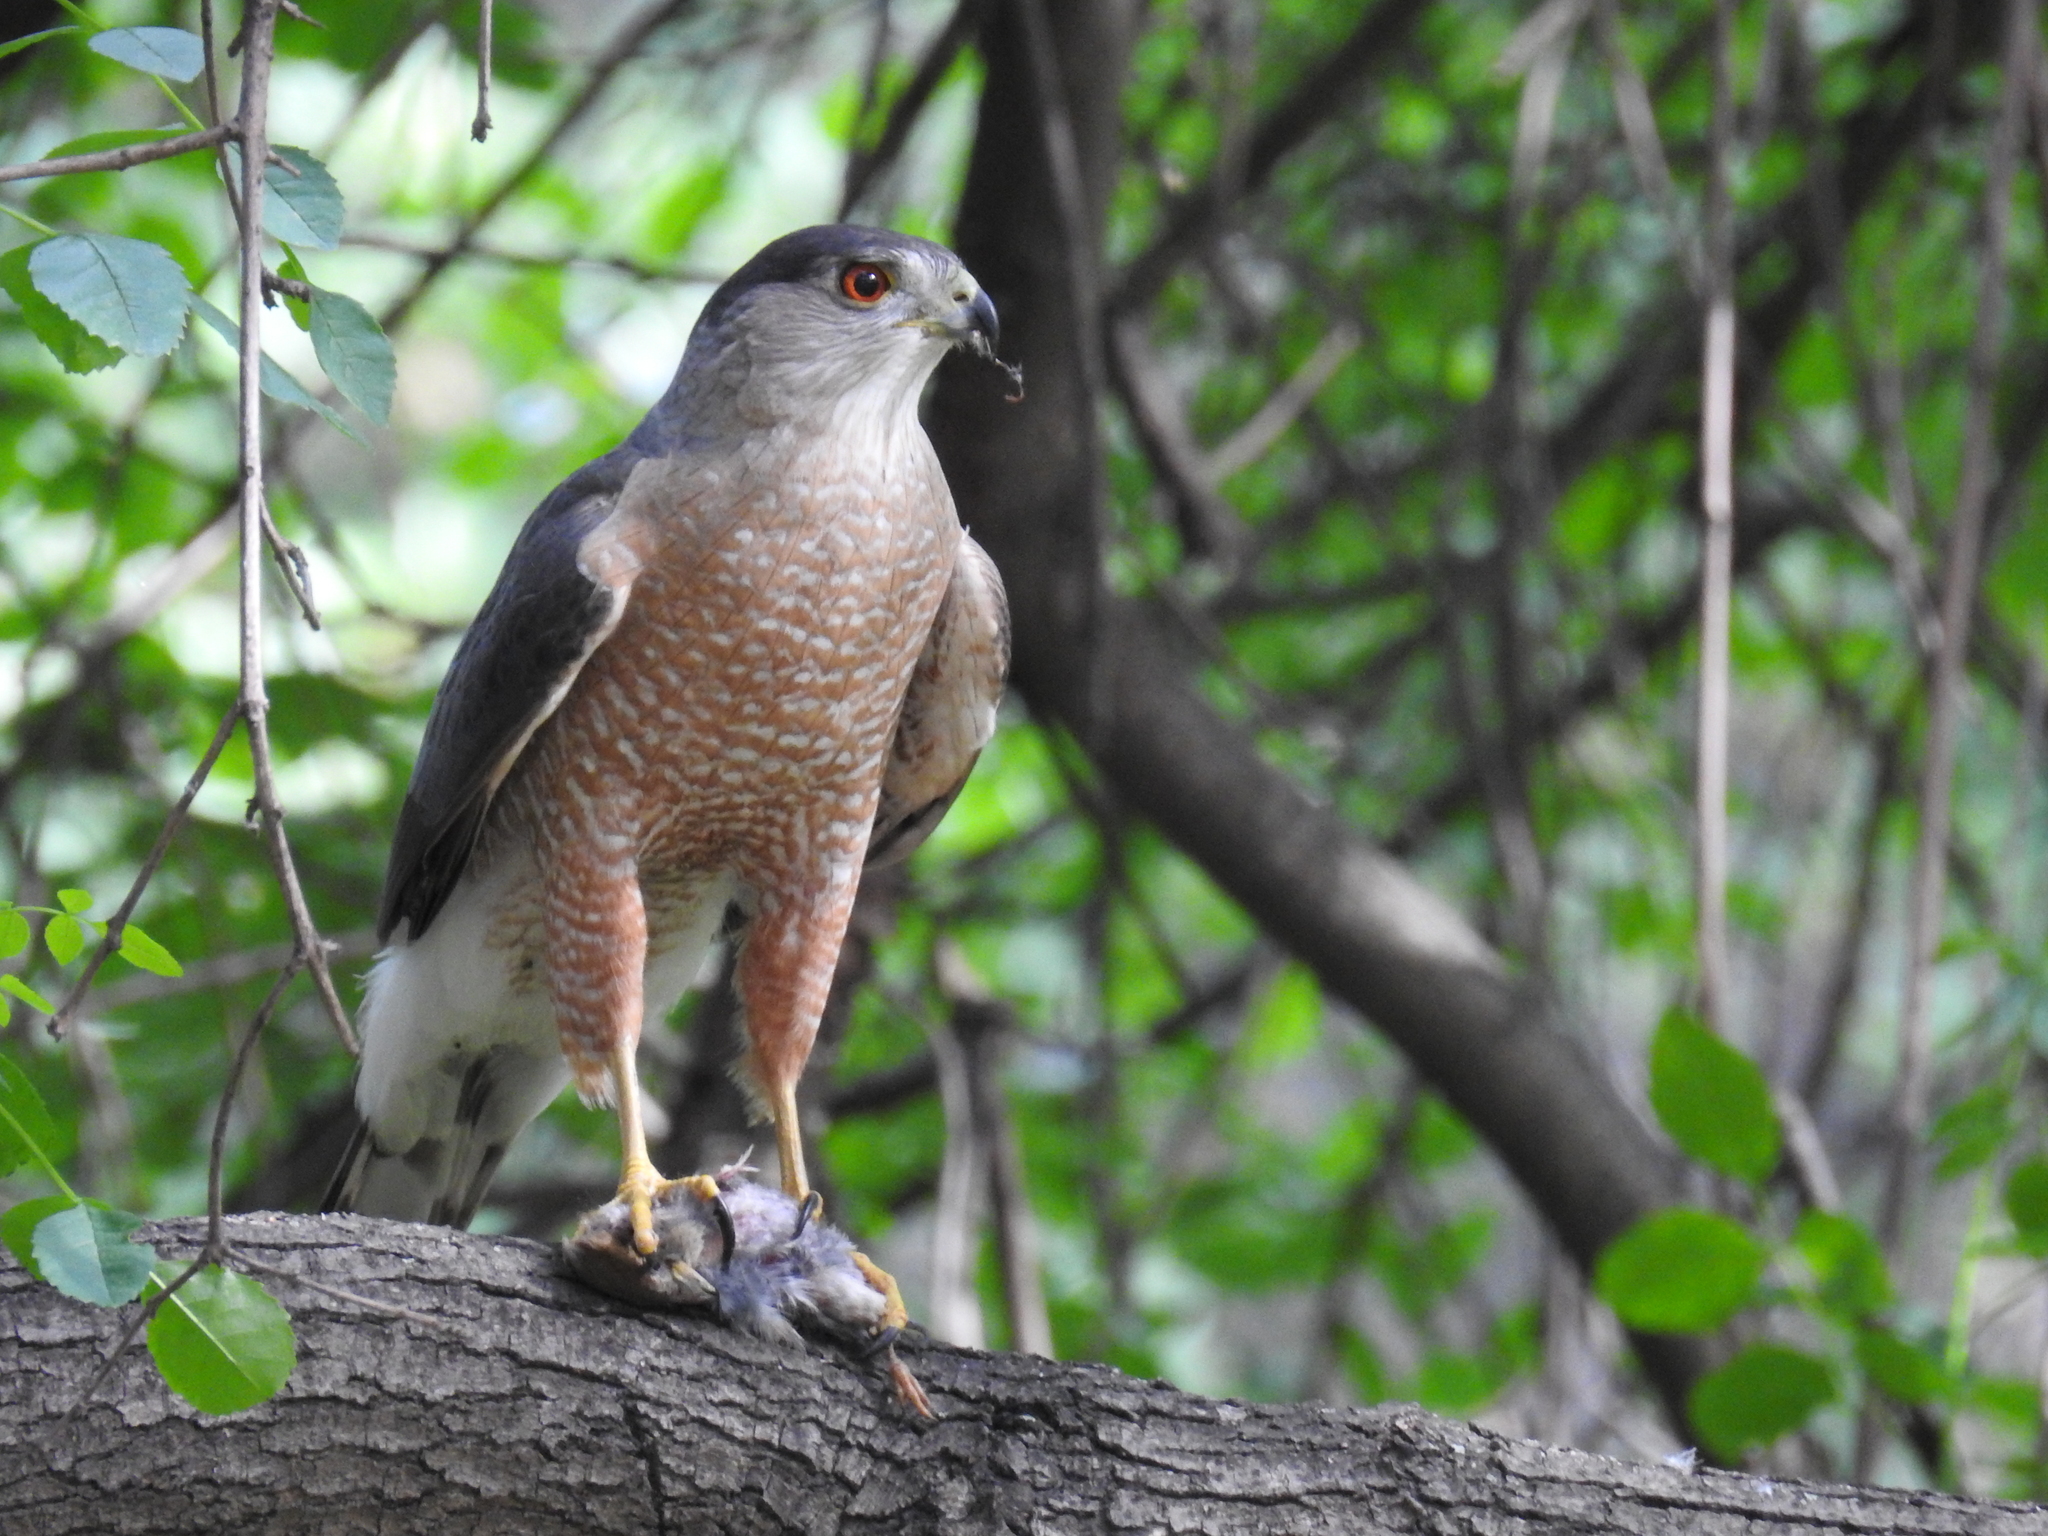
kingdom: Animalia
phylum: Chordata
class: Aves
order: Accipitriformes
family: Accipitridae
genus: Accipiter
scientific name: Accipiter cooperii
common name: Cooper's hawk
